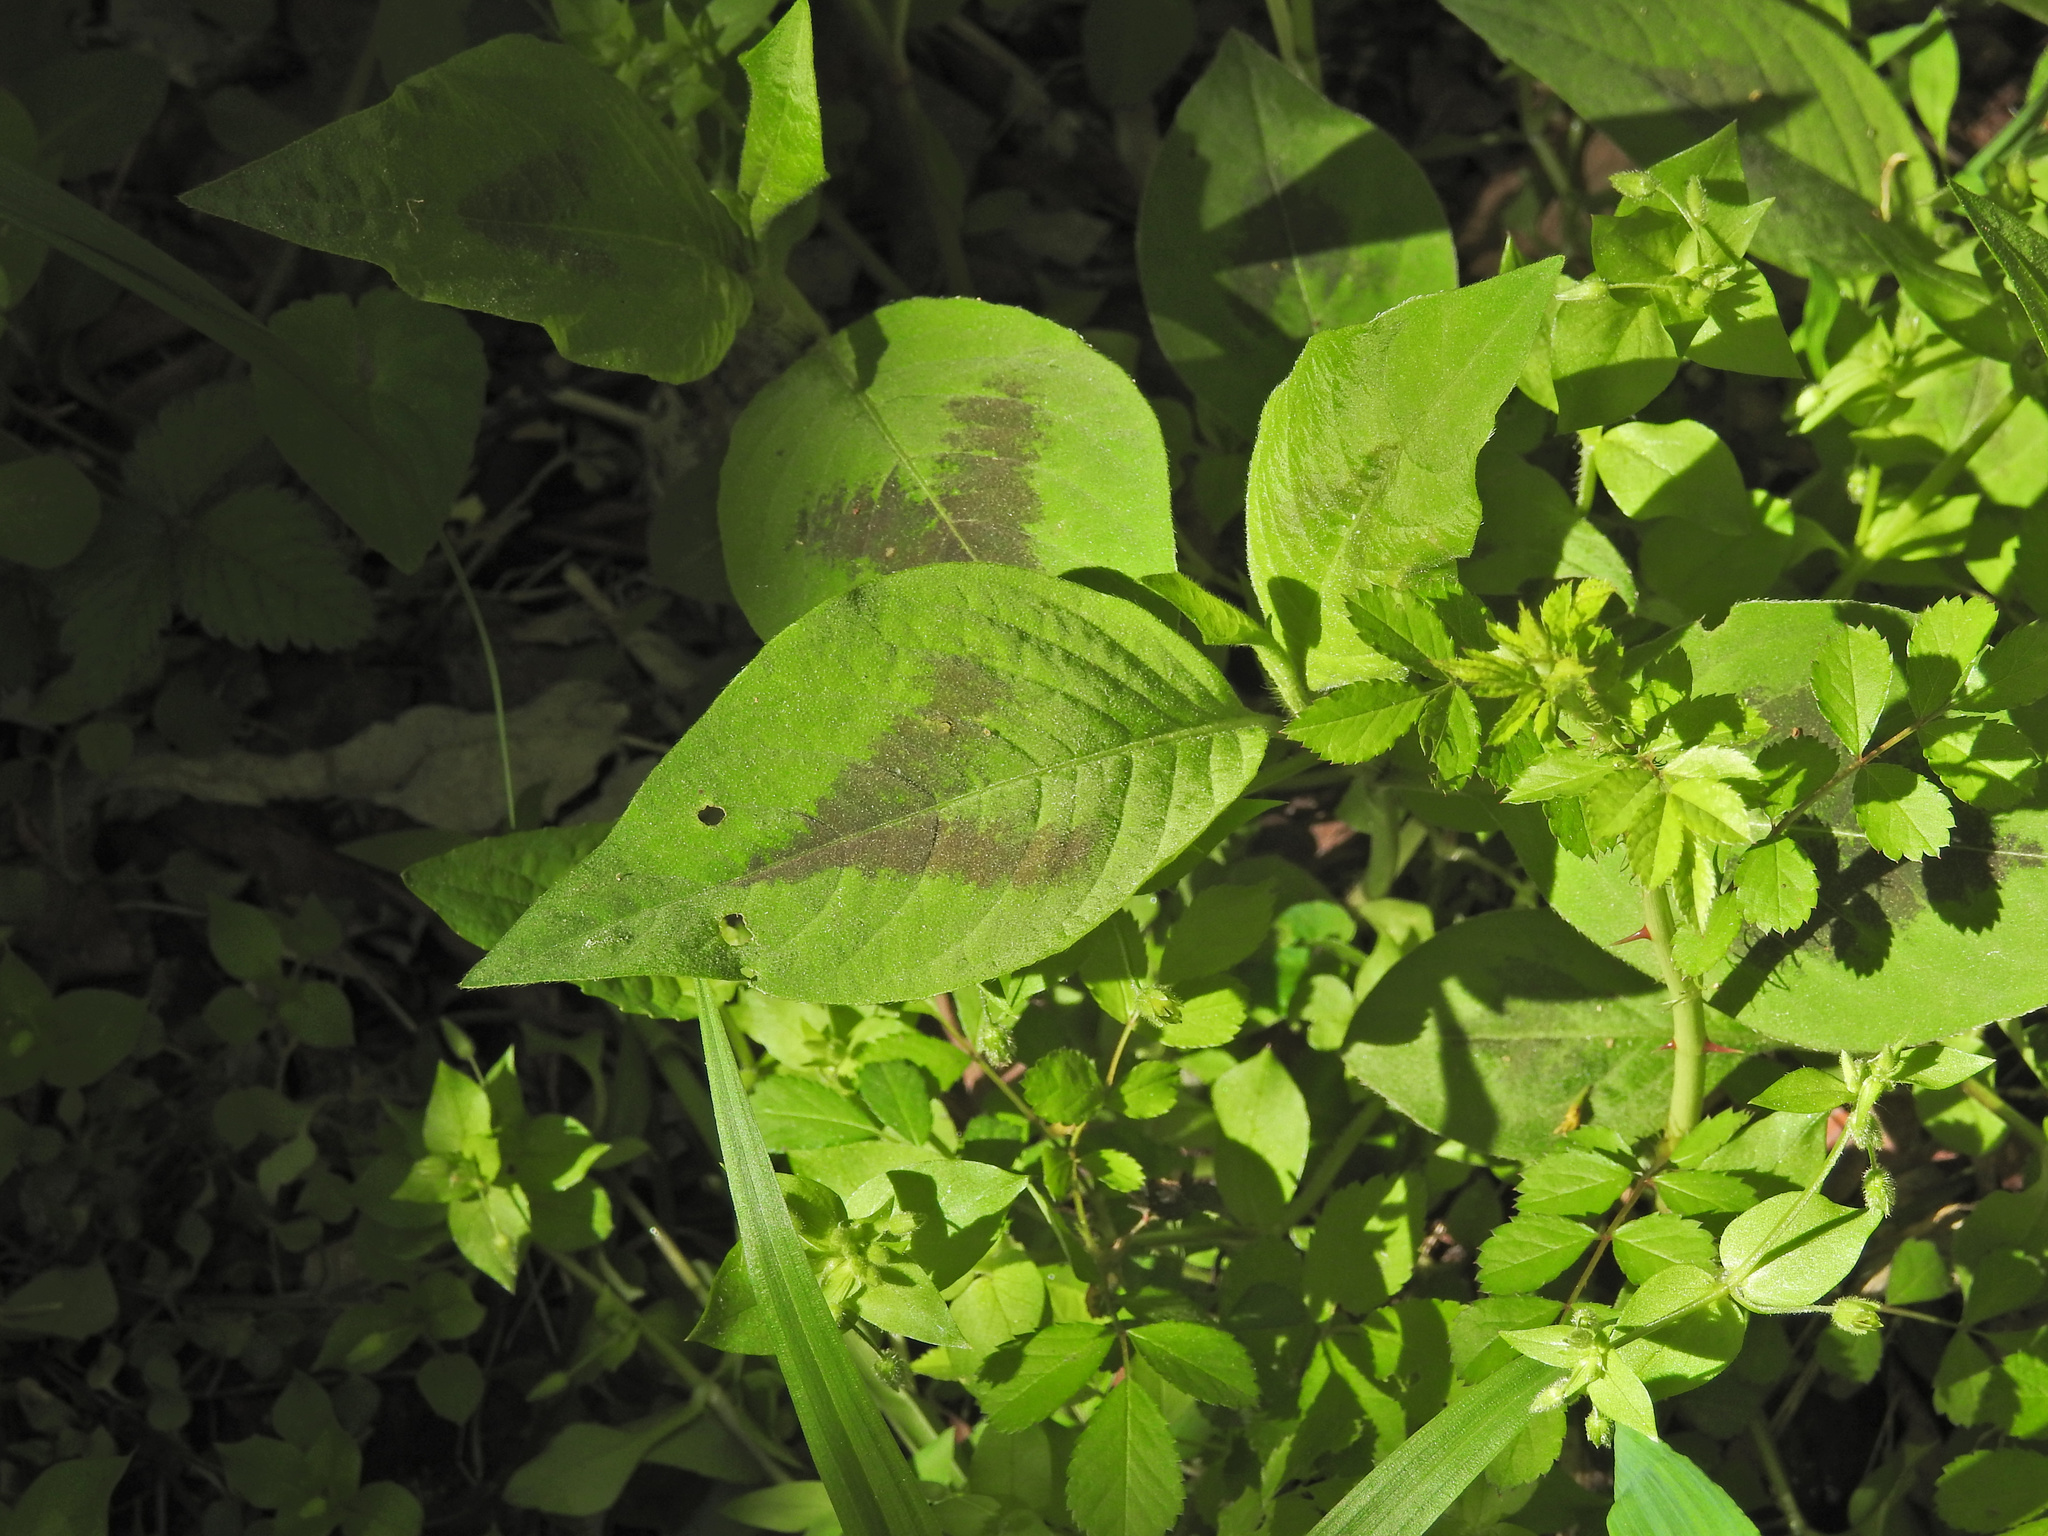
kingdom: Plantae
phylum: Tracheophyta
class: Magnoliopsida
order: Caryophyllales
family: Polygonaceae
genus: Persicaria
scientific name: Persicaria virginiana
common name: Jumpseed
